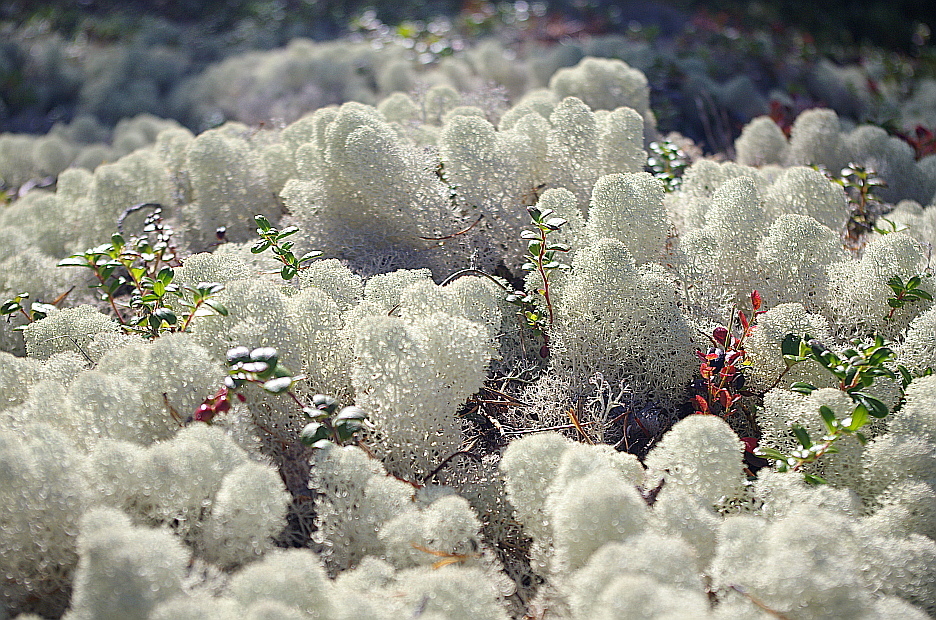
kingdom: Plantae
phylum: Tracheophyta
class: Magnoliopsida
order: Ericales
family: Ericaceae
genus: Vaccinium
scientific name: Vaccinium vitis-idaea
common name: Cowberry
